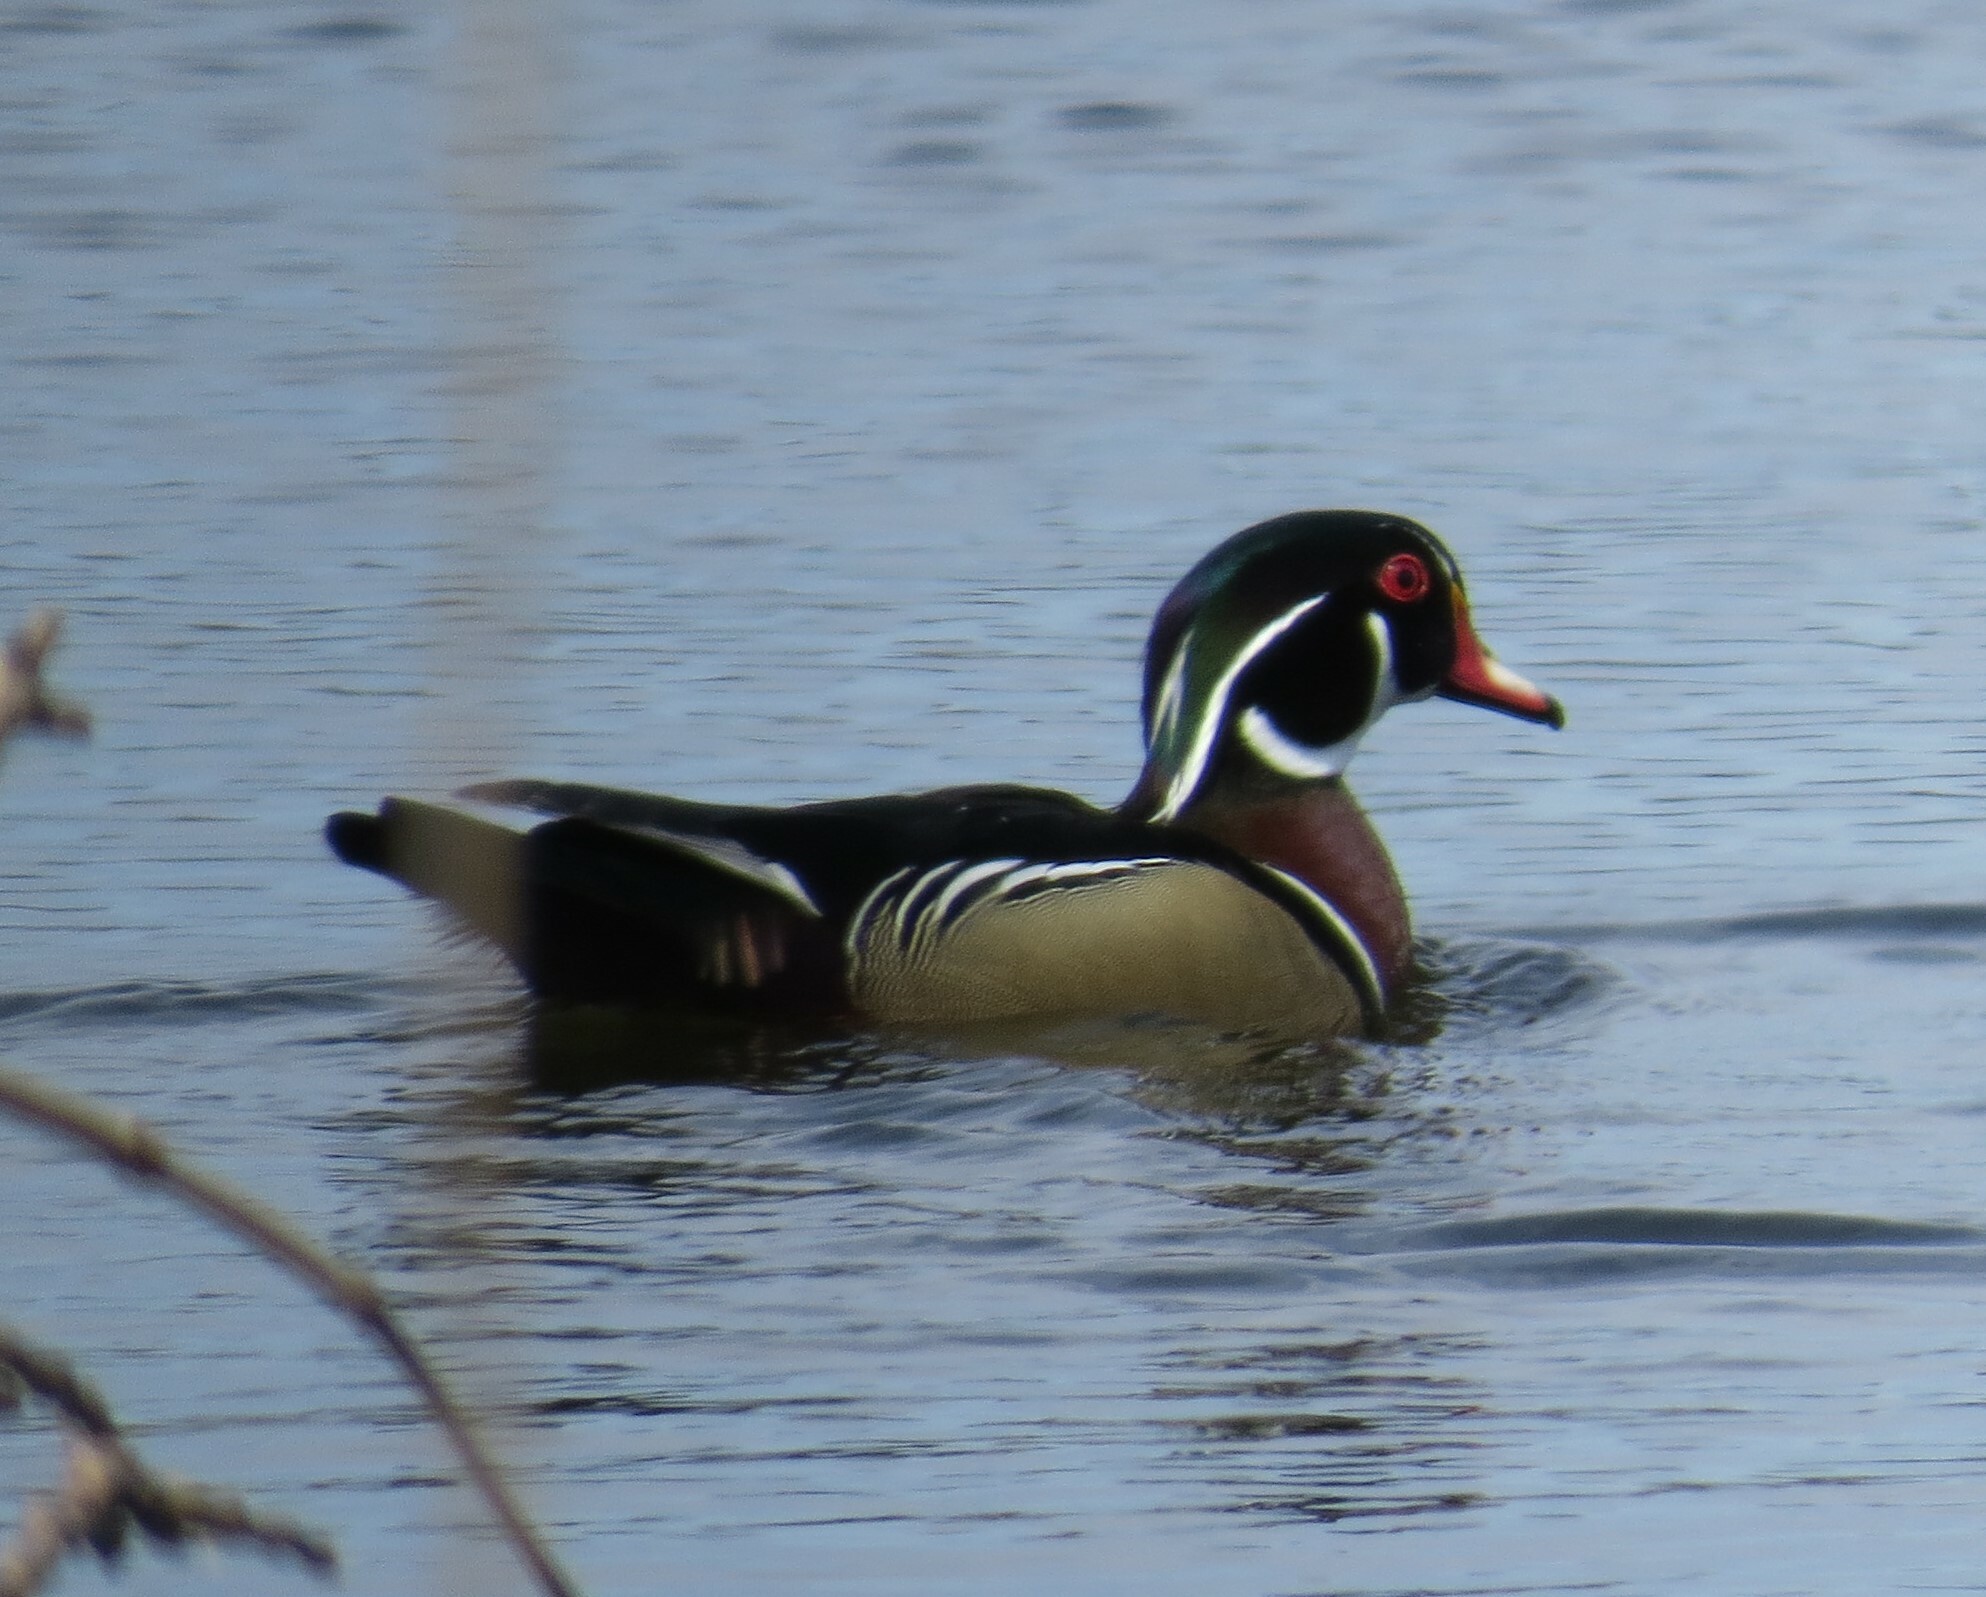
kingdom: Animalia
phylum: Chordata
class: Aves
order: Anseriformes
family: Anatidae
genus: Aix
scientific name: Aix sponsa
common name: Wood duck
